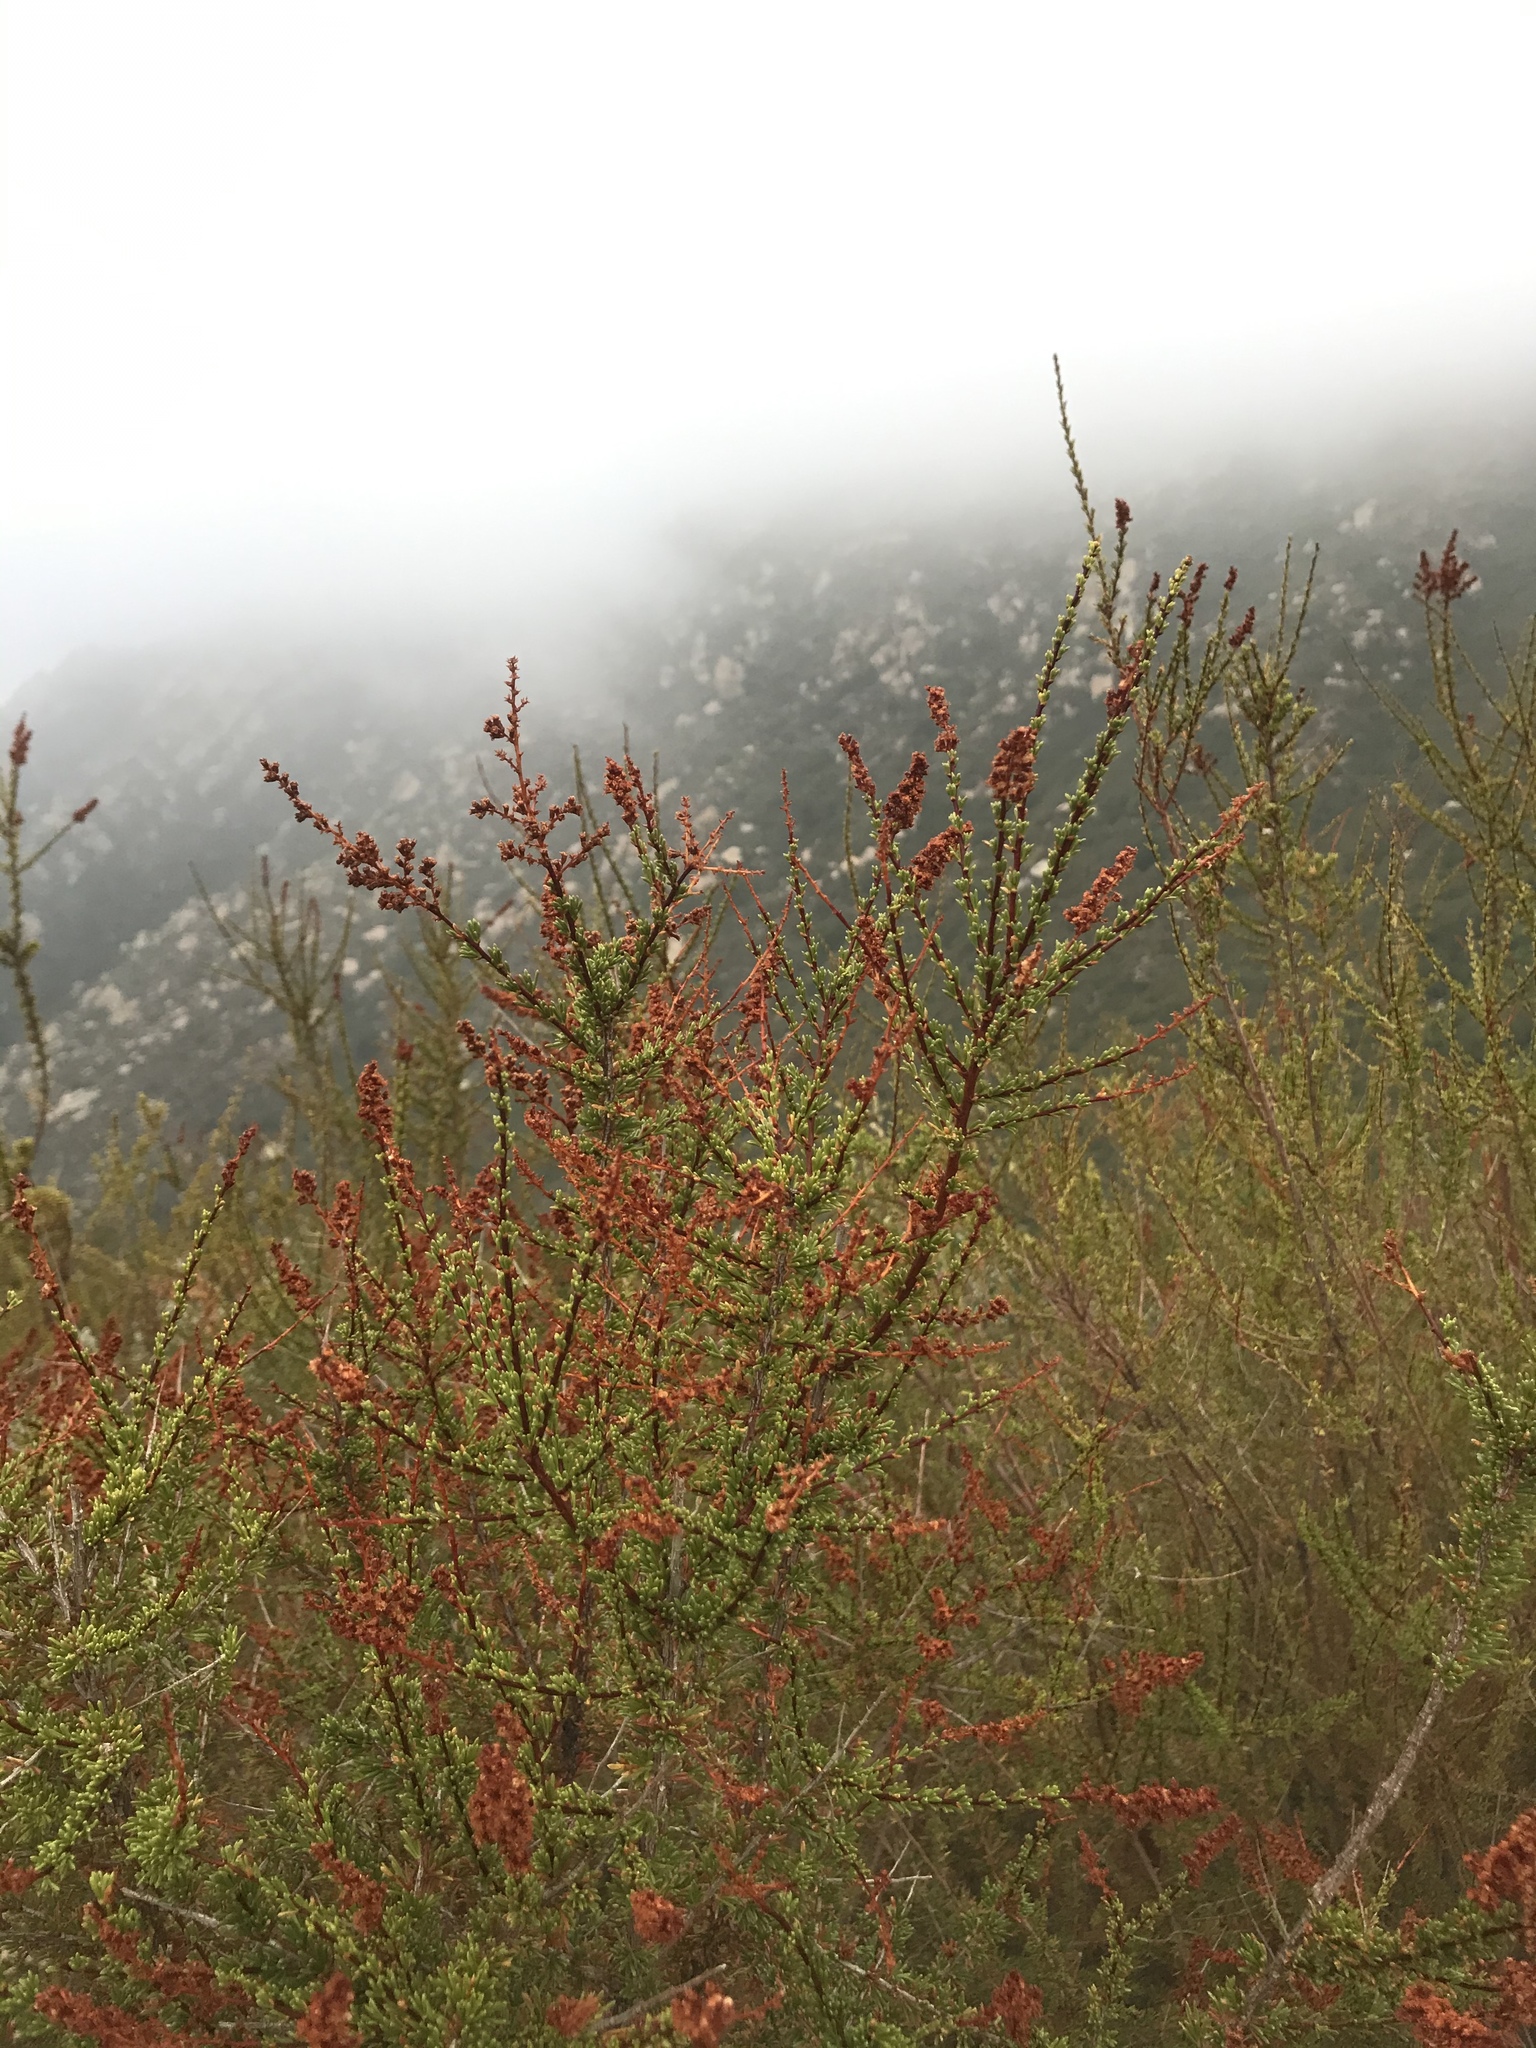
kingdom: Plantae
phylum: Tracheophyta
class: Magnoliopsida
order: Rosales
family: Rosaceae
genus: Adenostoma
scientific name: Adenostoma fasciculatum
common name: Chamise
